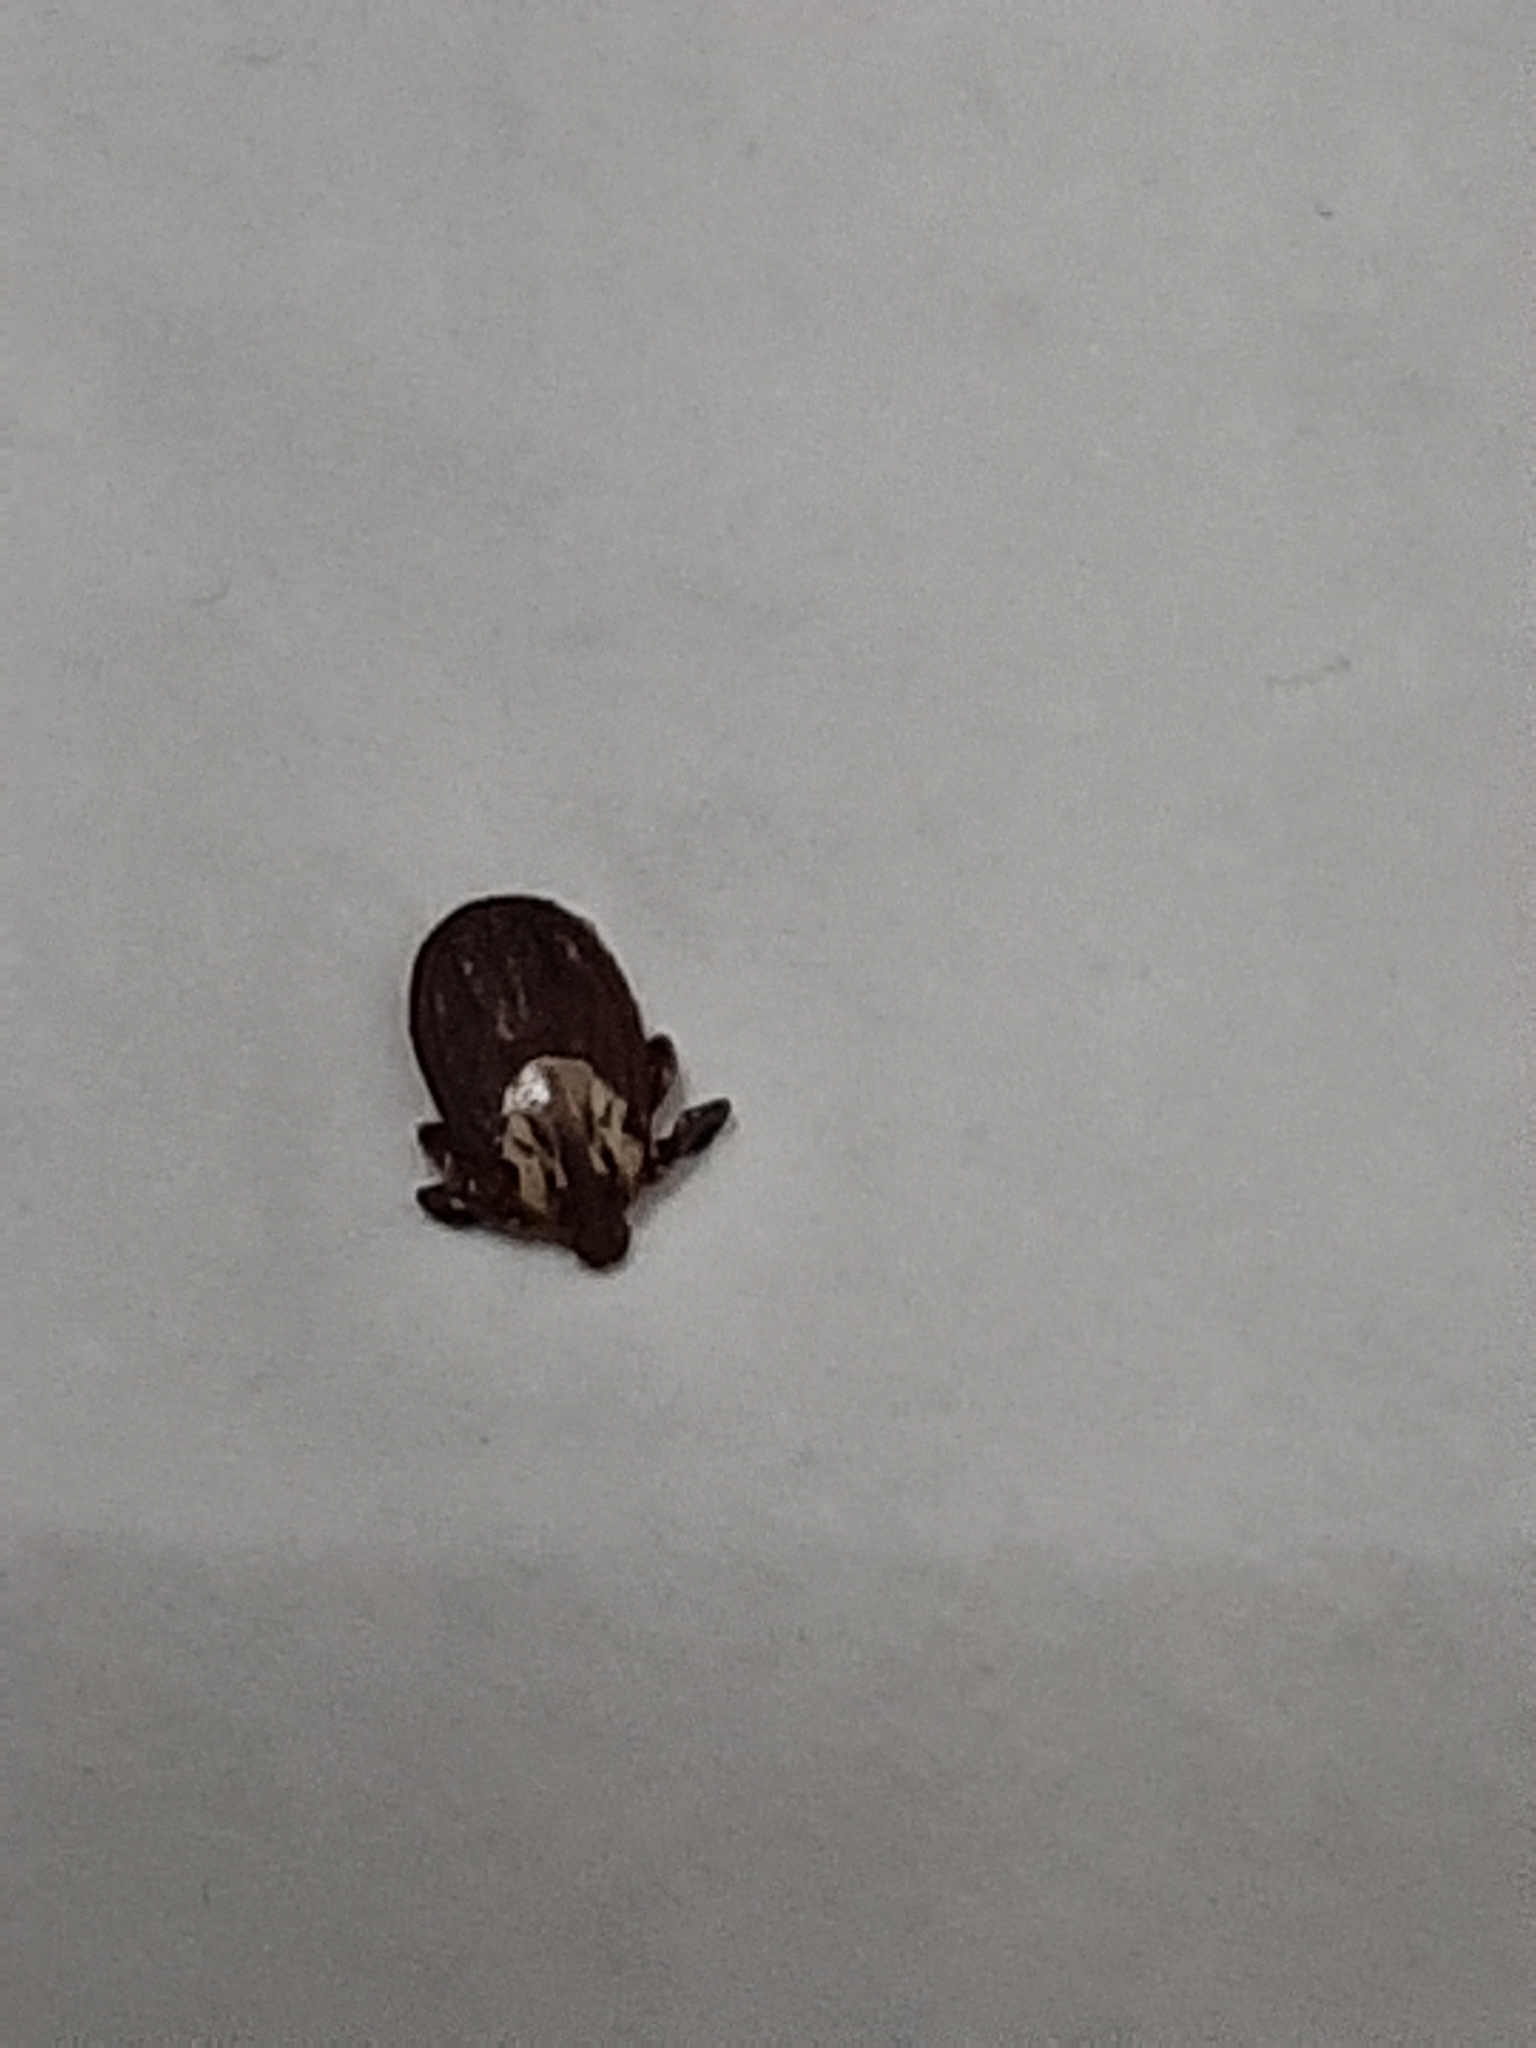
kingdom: Animalia
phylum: Arthropoda
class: Arachnida
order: Ixodida
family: Ixodidae
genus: Dermacentor
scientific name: Dermacentor variabilis
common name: American dog tick
